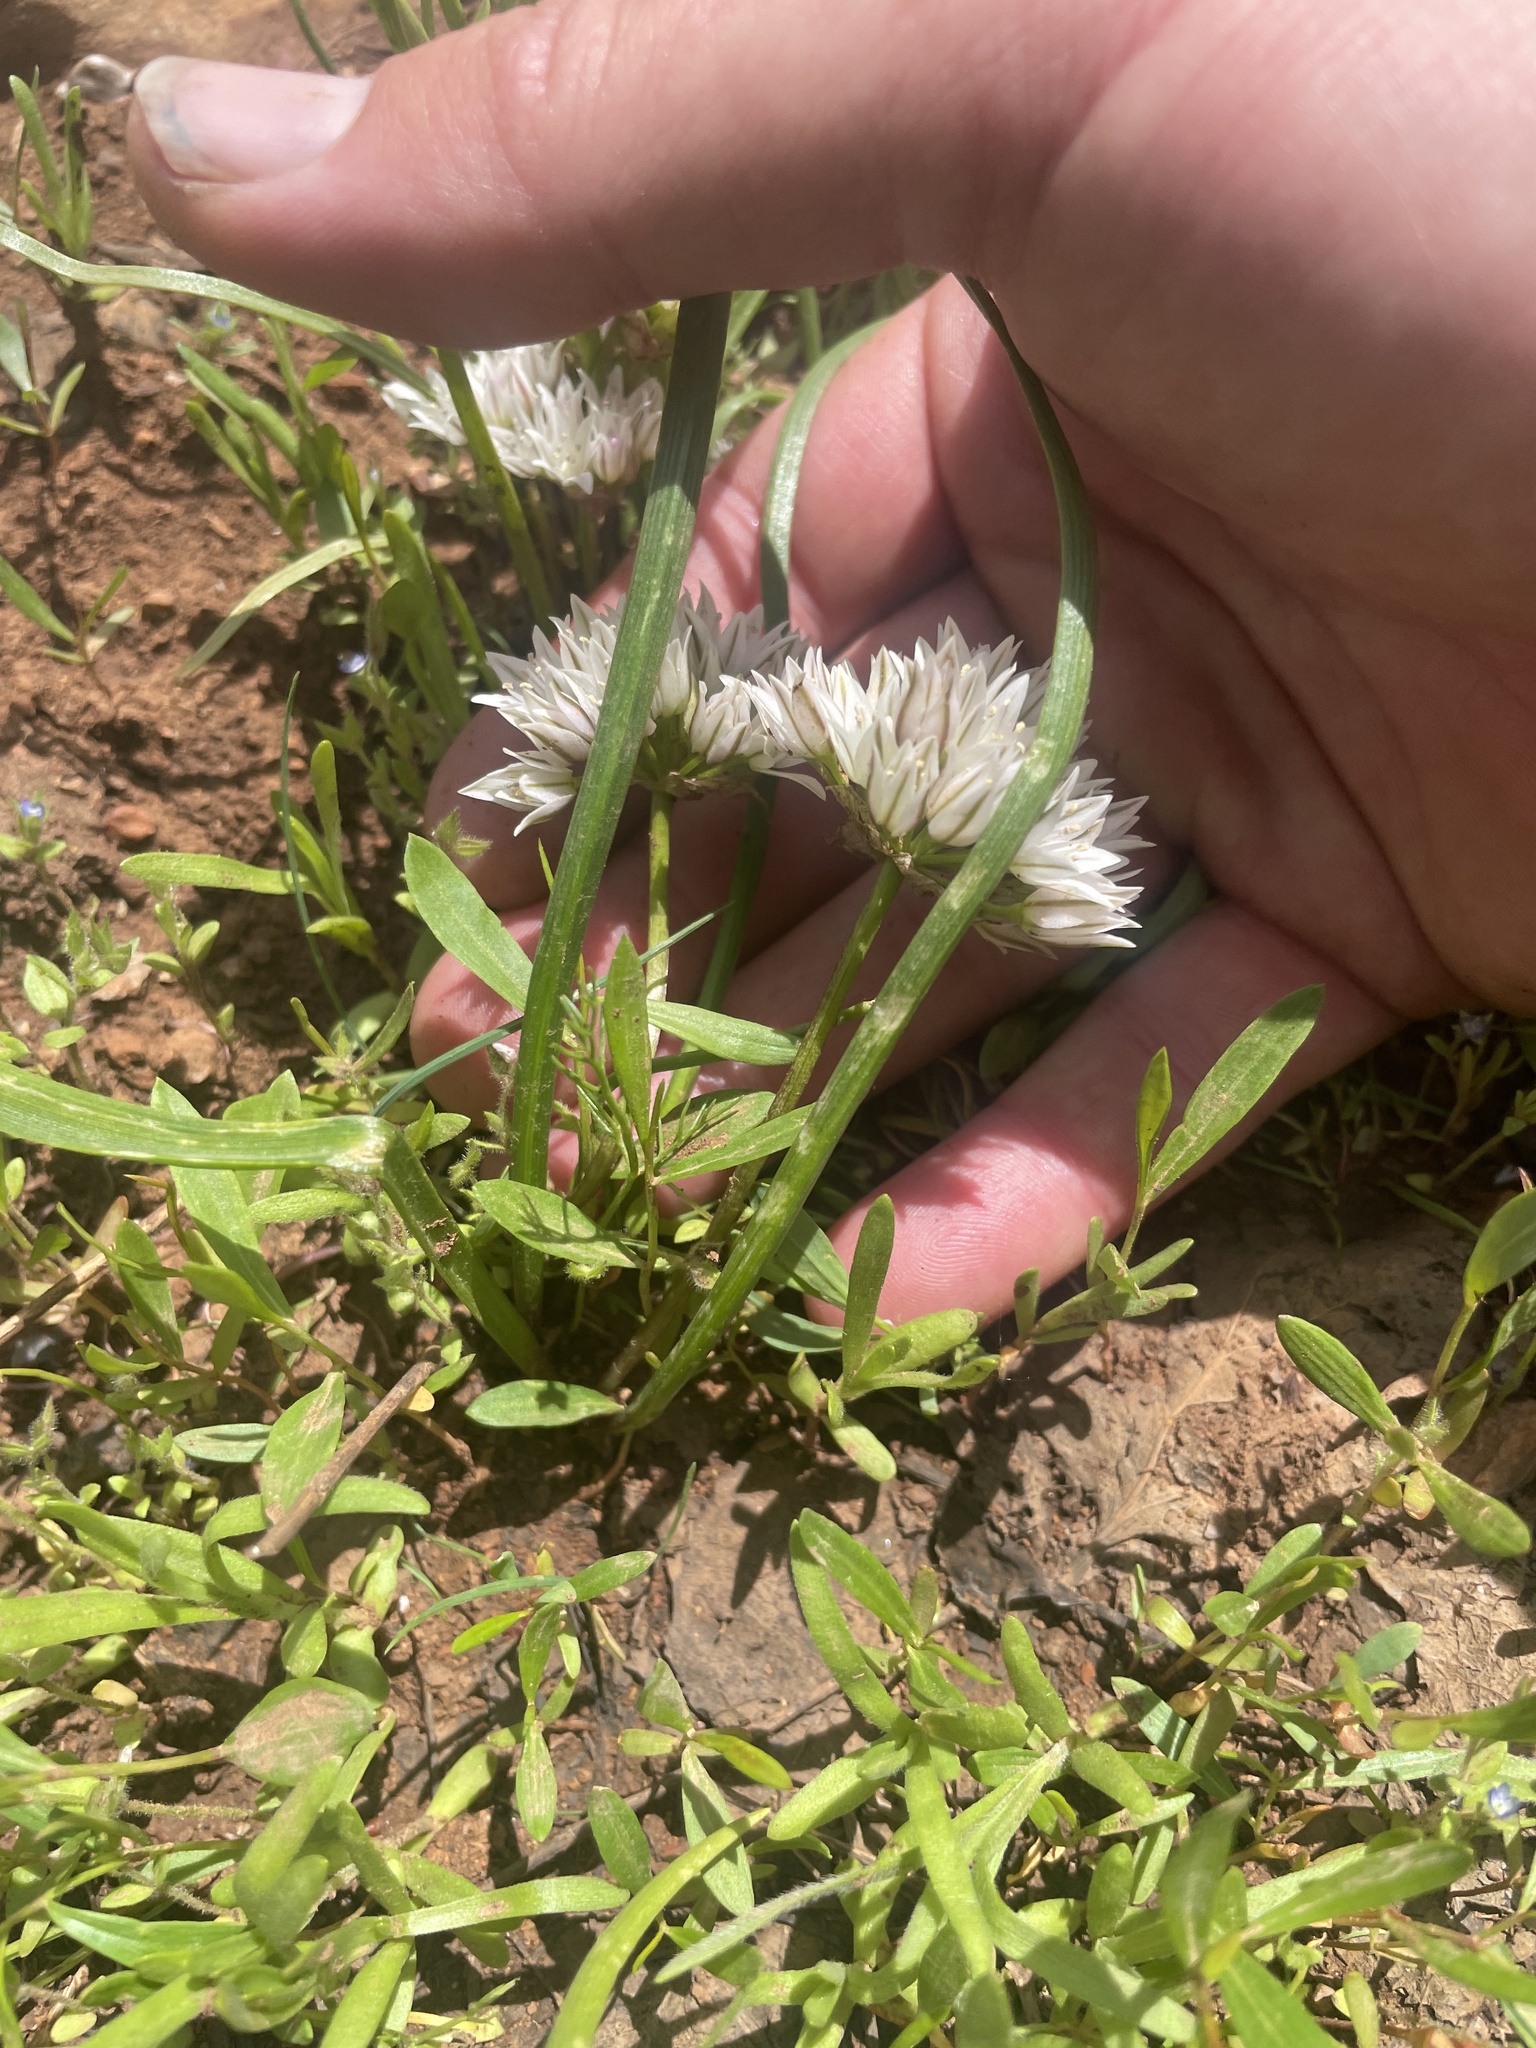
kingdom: Plantae
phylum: Tracheophyta
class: Liliopsida
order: Asparagales
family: Amaryllidaceae
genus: Allium
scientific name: Allium brandegeei
